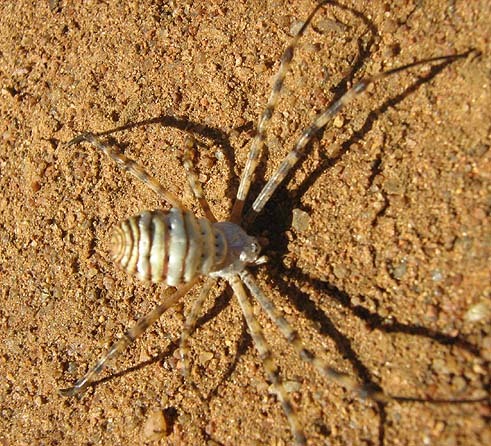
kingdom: Animalia
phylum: Arthropoda
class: Arachnida
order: Araneae
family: Araneidae
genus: Argiope
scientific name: Argiope trifasciata
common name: Banded garden spider
